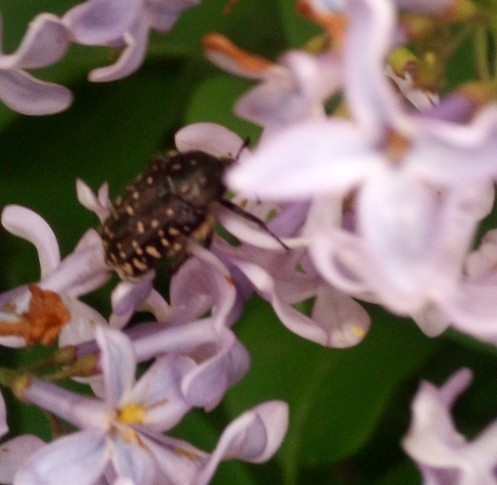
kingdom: Animalia
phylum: Arthropoda
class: Insecta
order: Coleoptera
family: Scarabaeidae
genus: Oxythyrea
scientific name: Oxythyrea funesta
